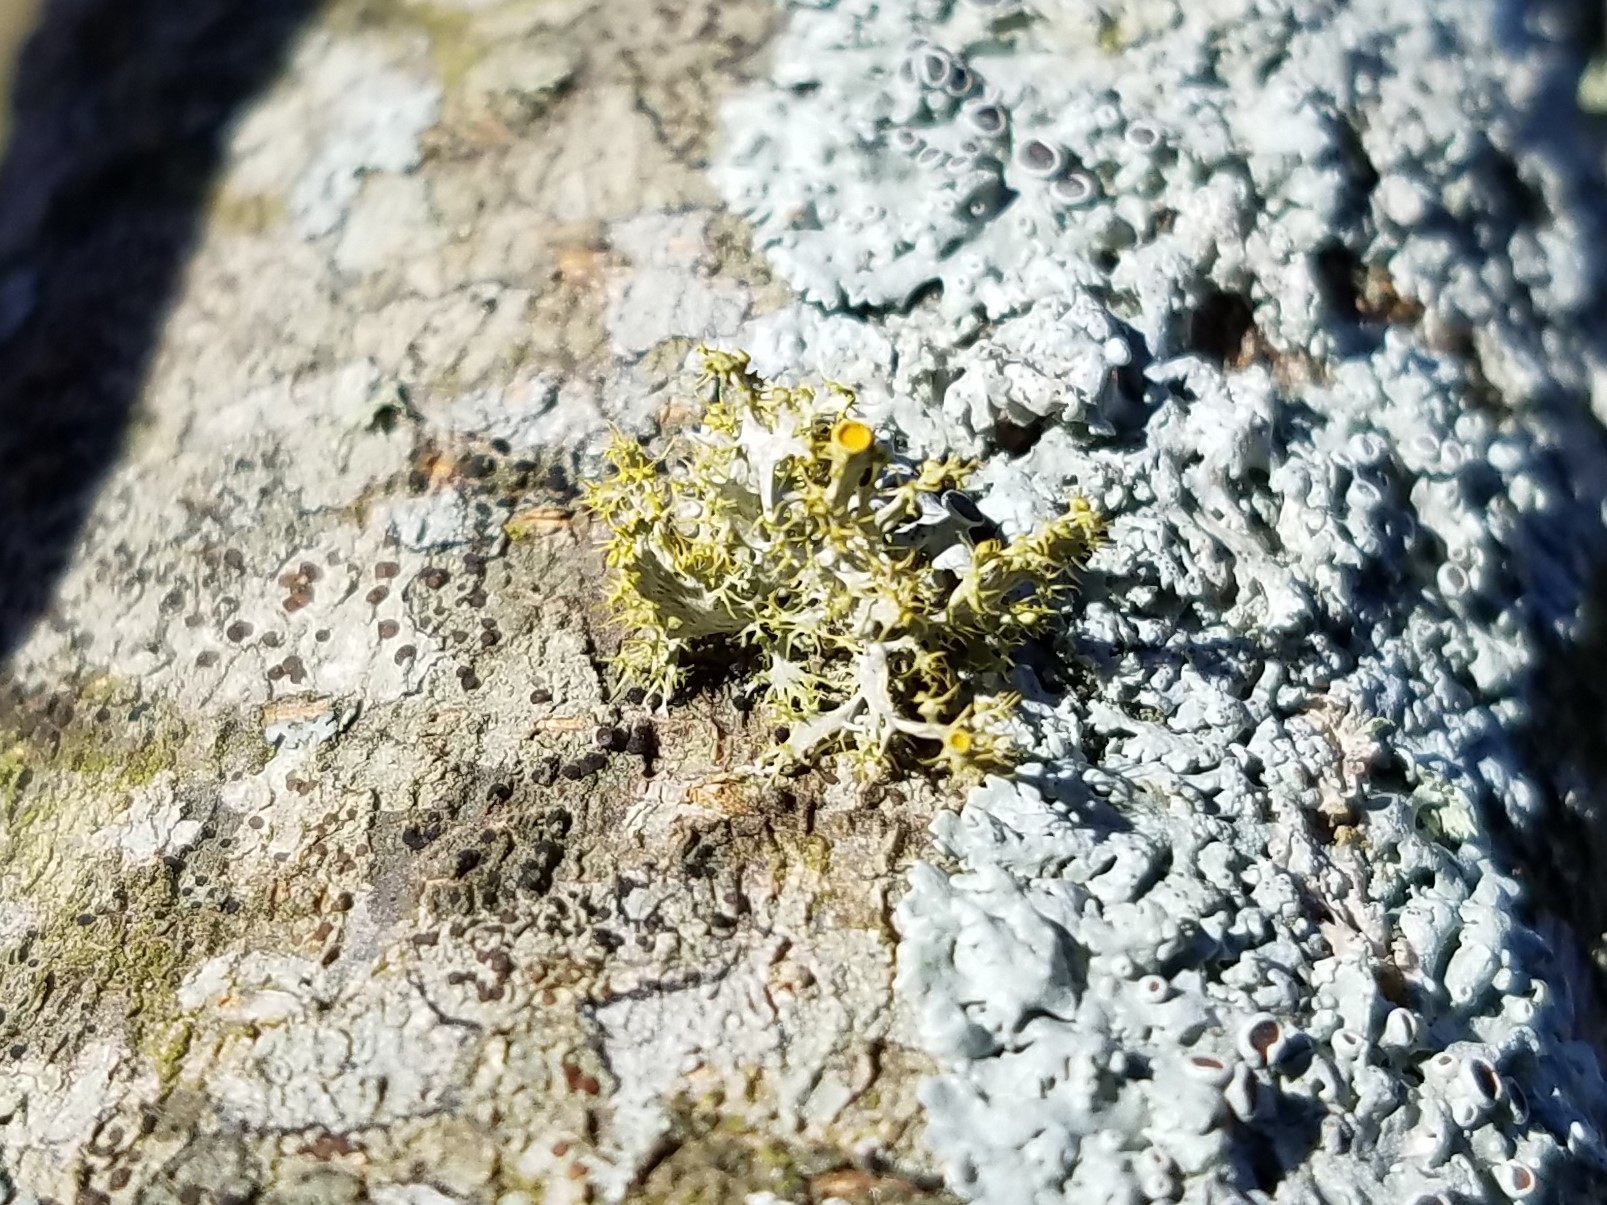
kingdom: Fungi
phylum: Ascomycota
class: Lecanoromycetes
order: Teloschistales
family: Teloschistaceae
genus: Niorma
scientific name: Niorma chrysophthalma
